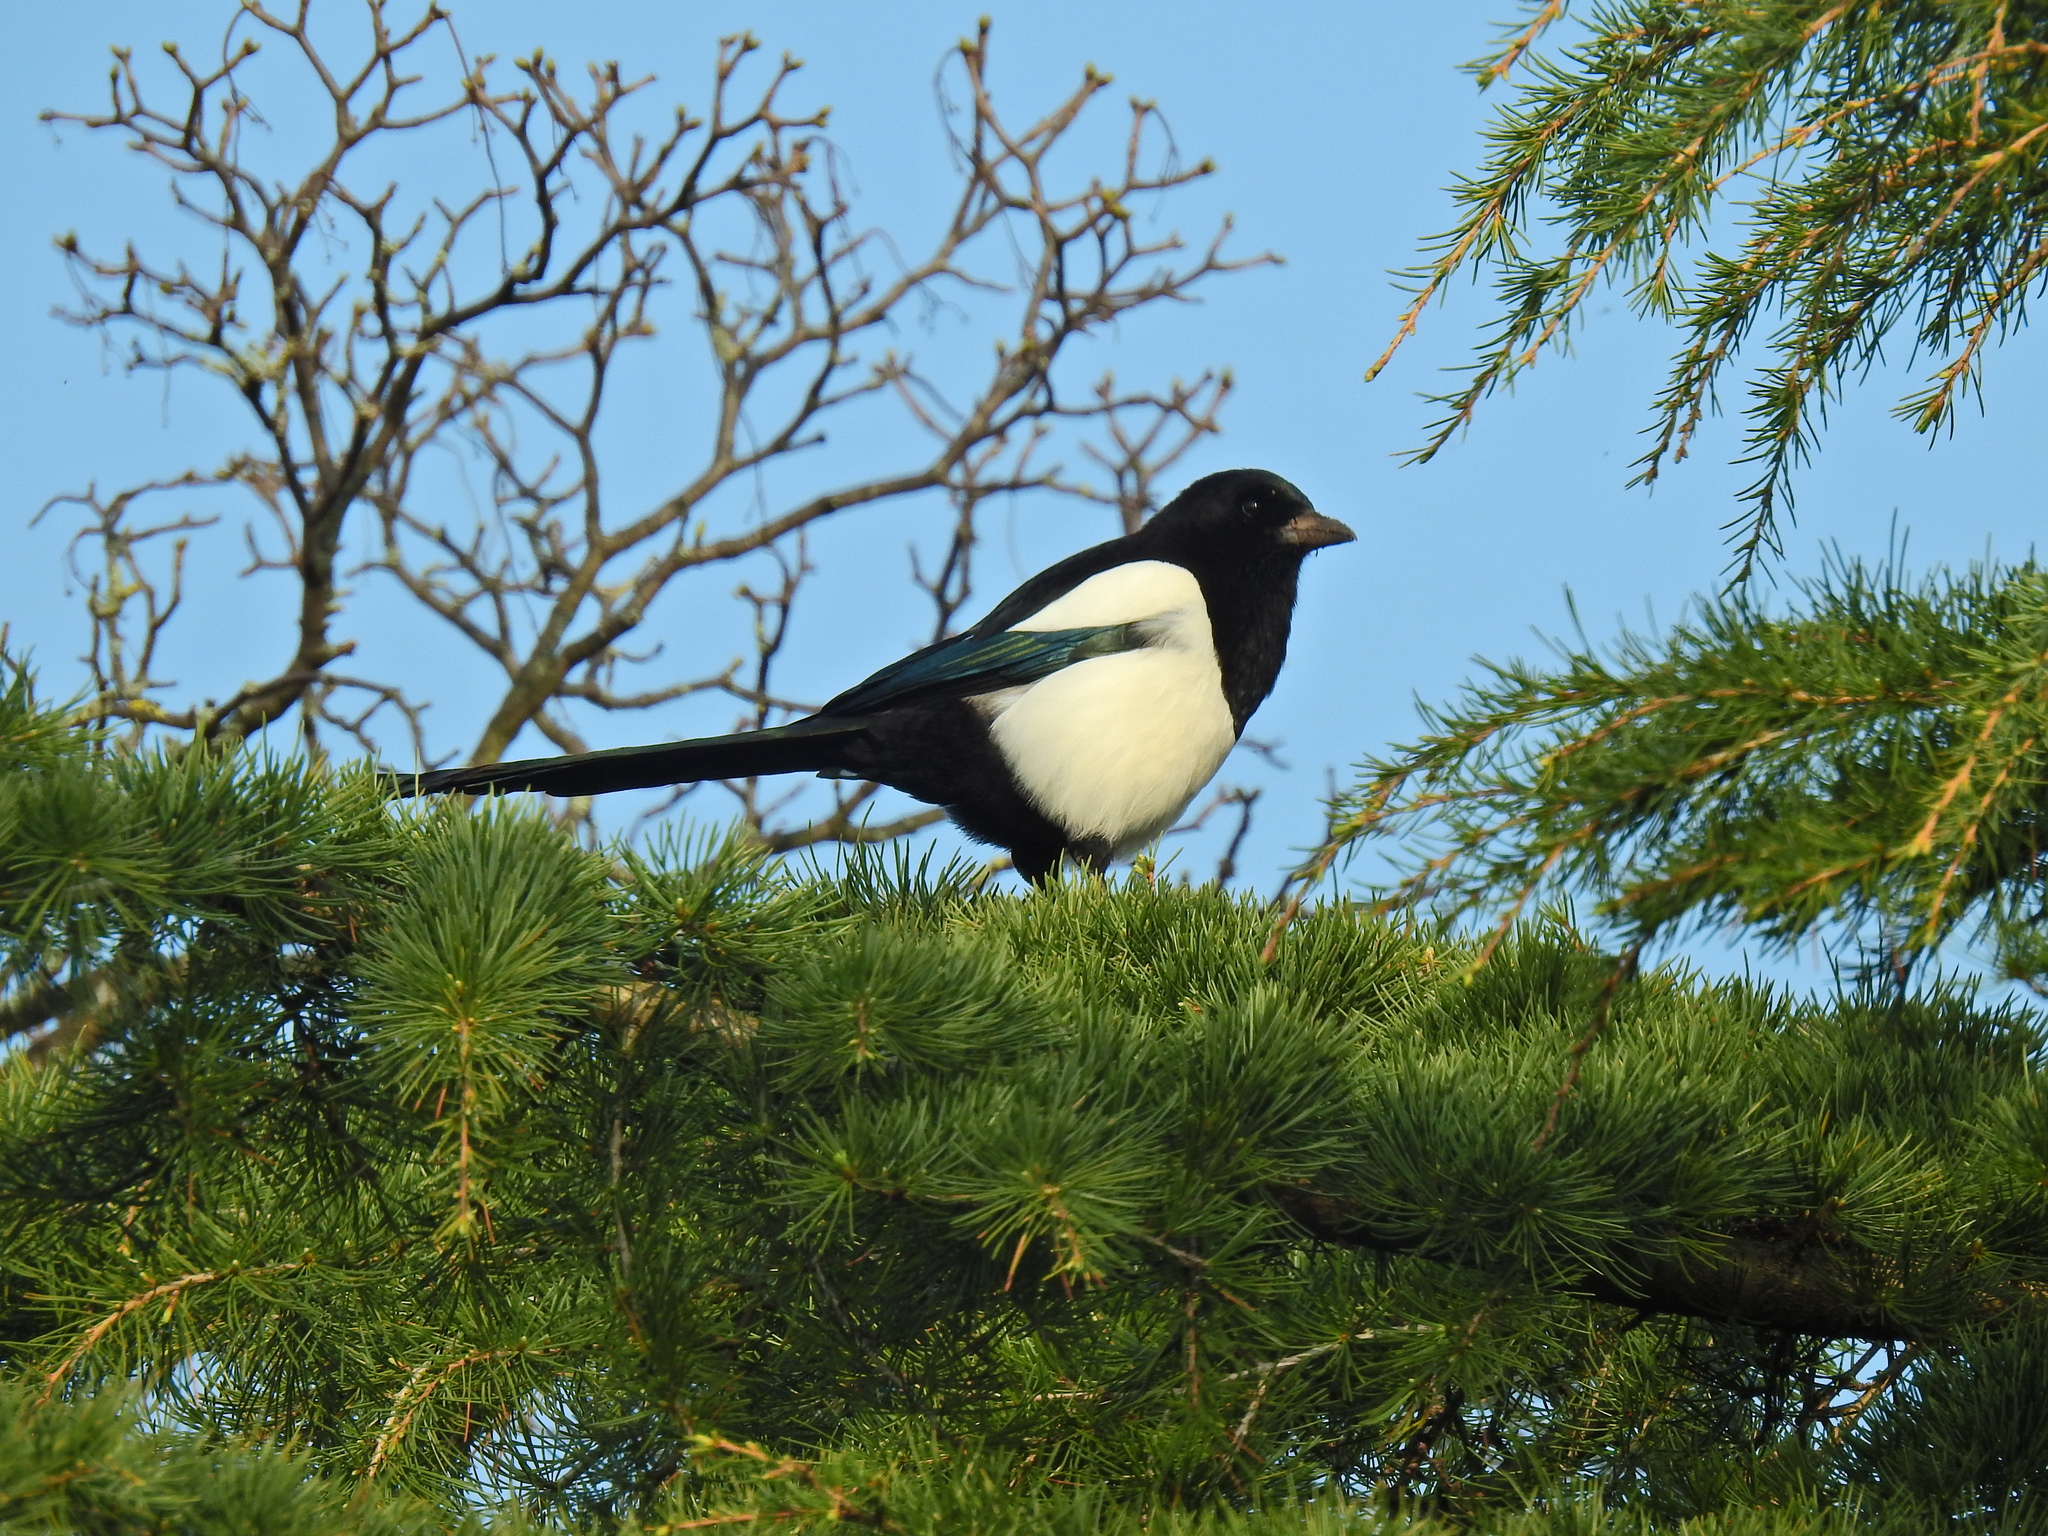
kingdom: Animalia
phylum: Chordata
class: Aves
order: Passeriformes
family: Corvidae
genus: Pica
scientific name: Pica pica
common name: Eurasian magpie
